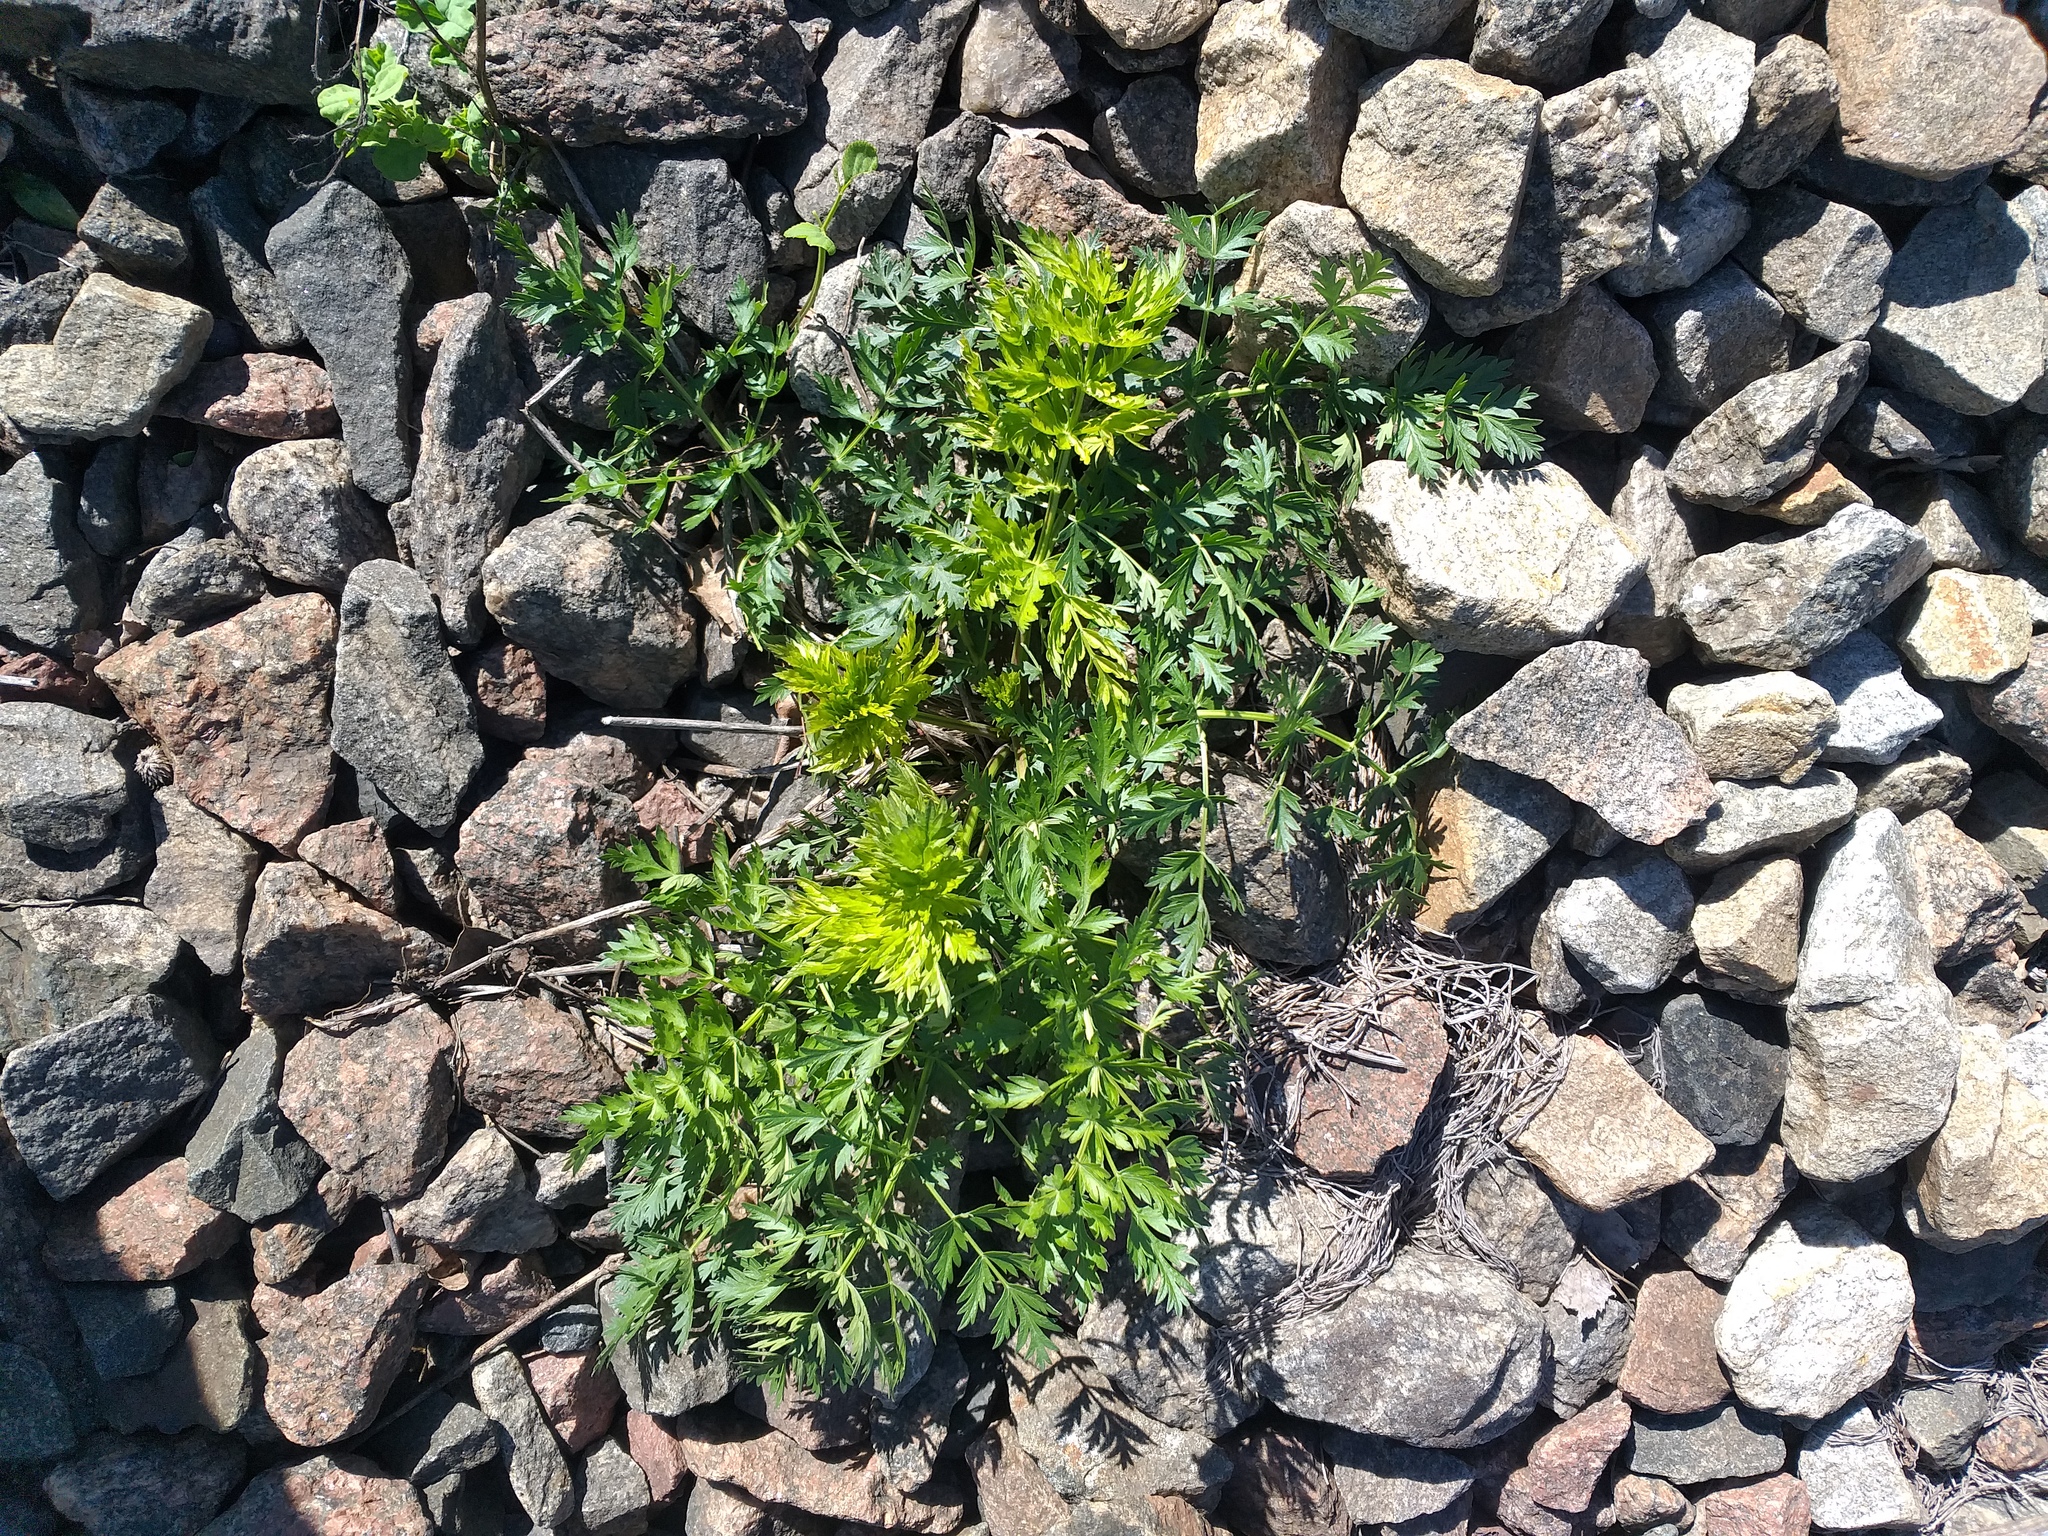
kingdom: Plantae
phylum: Tracheophyta
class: Magnoliopsida
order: Apiales
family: Apiaceae
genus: Seseli
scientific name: Seseli libanotis
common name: Mooncarrot
